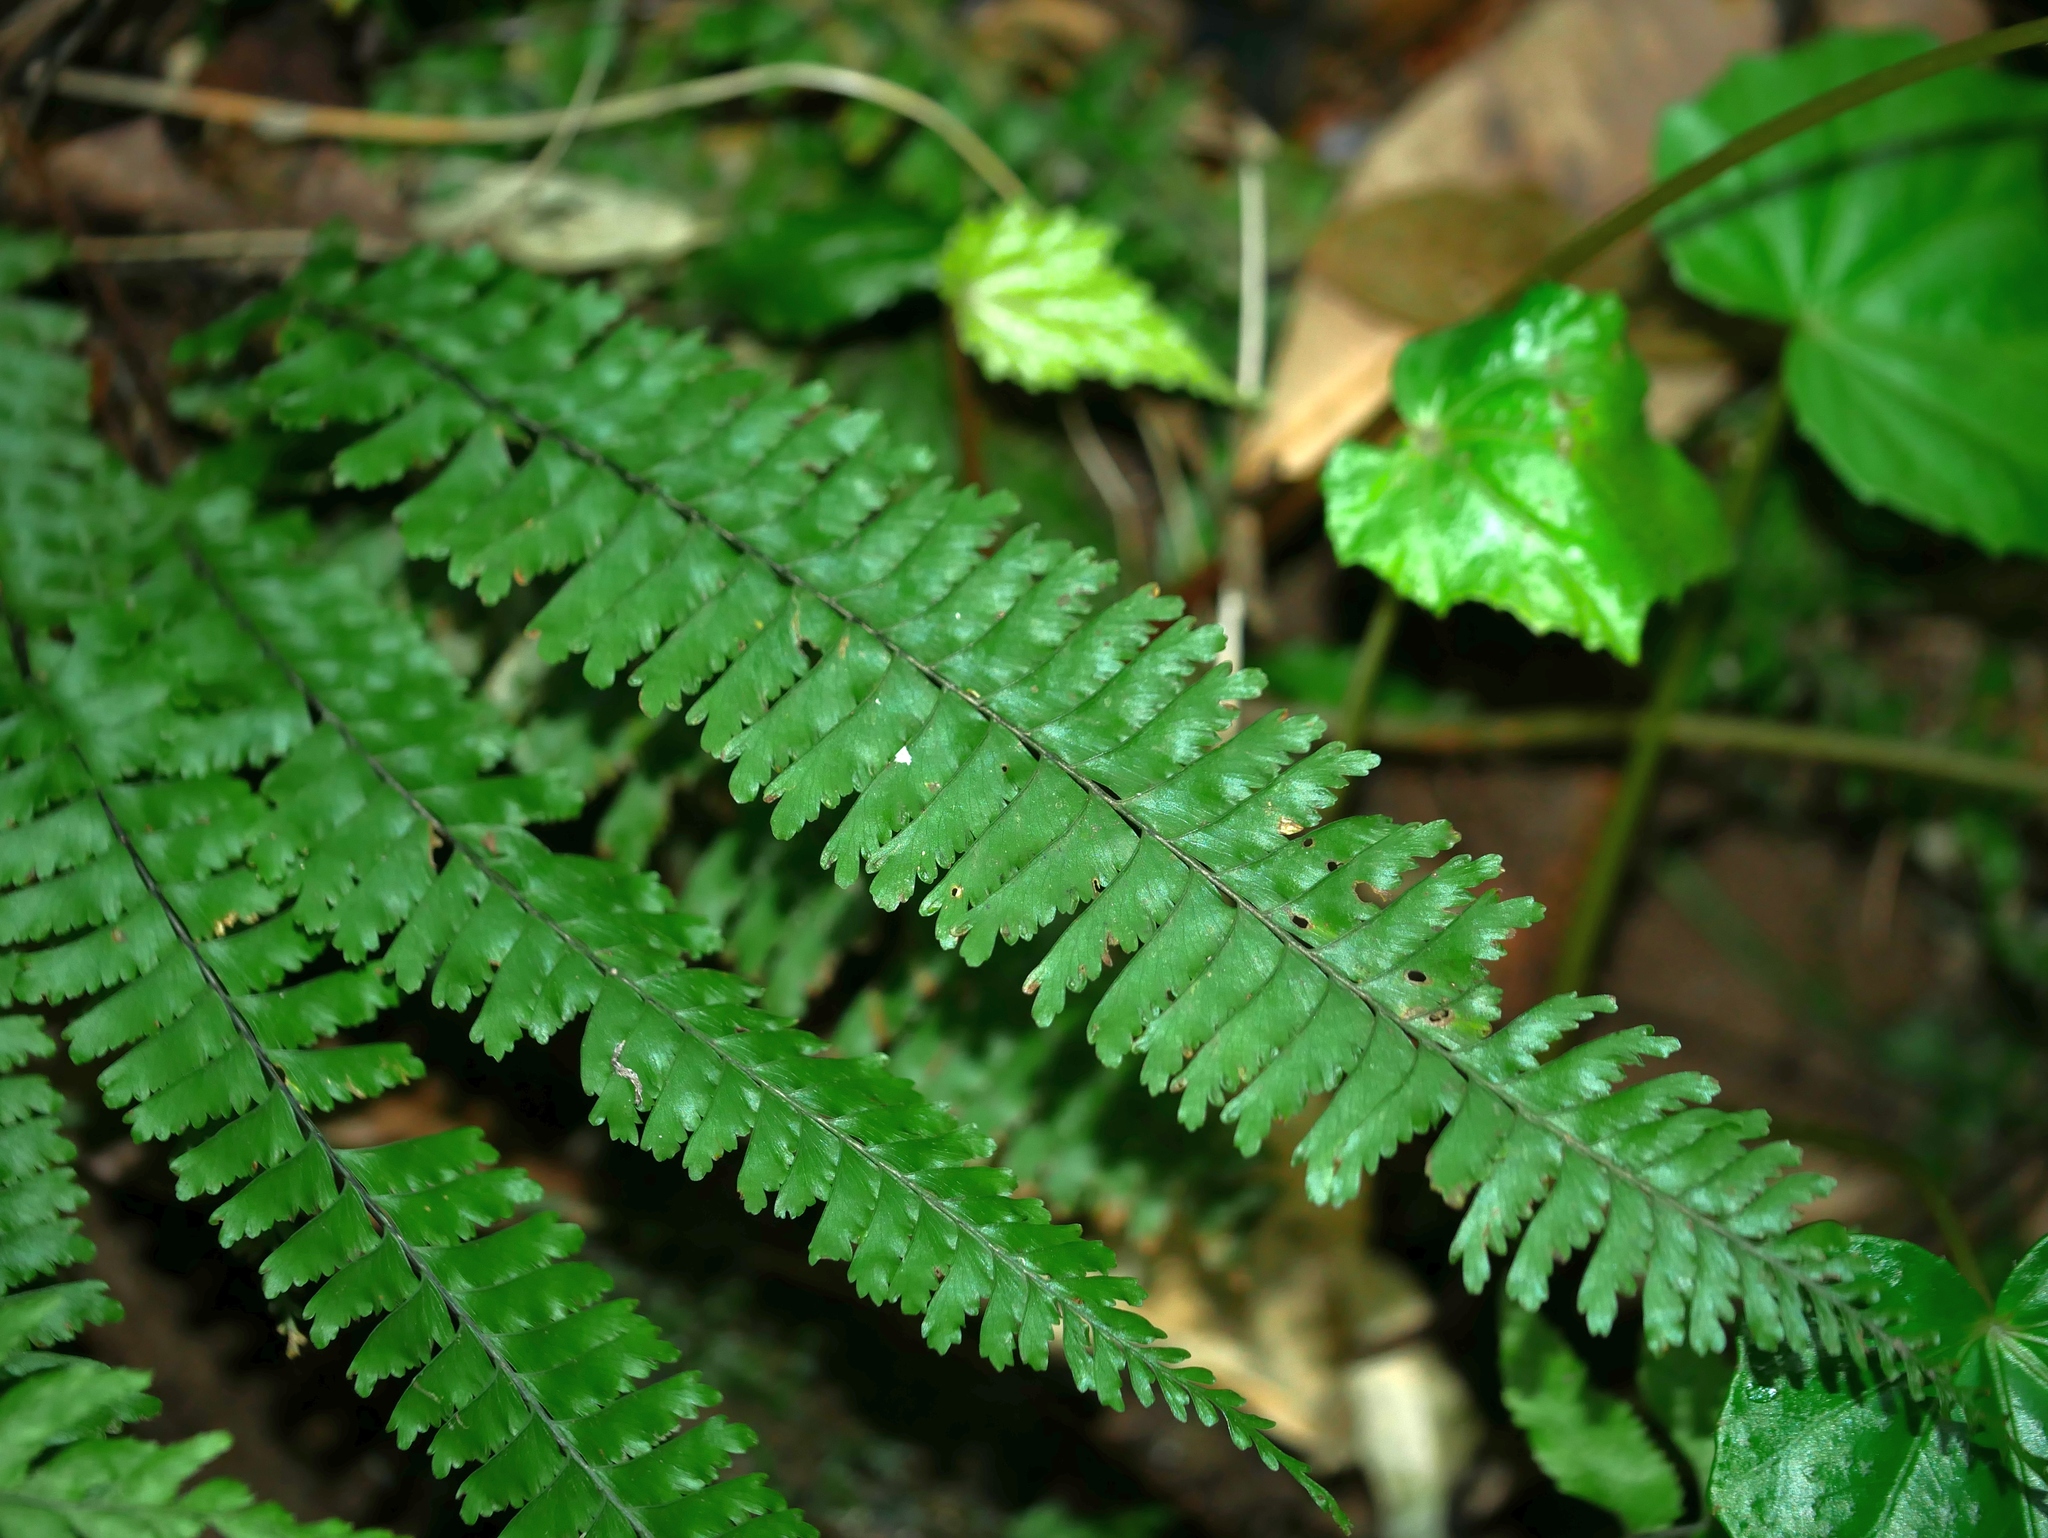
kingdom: Plantae
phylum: Tracheophyta
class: Polypodiopsida
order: Polypodiales
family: Aspleniaceae
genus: Hymenasplenium
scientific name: Hymenasplenium cheilosorum
